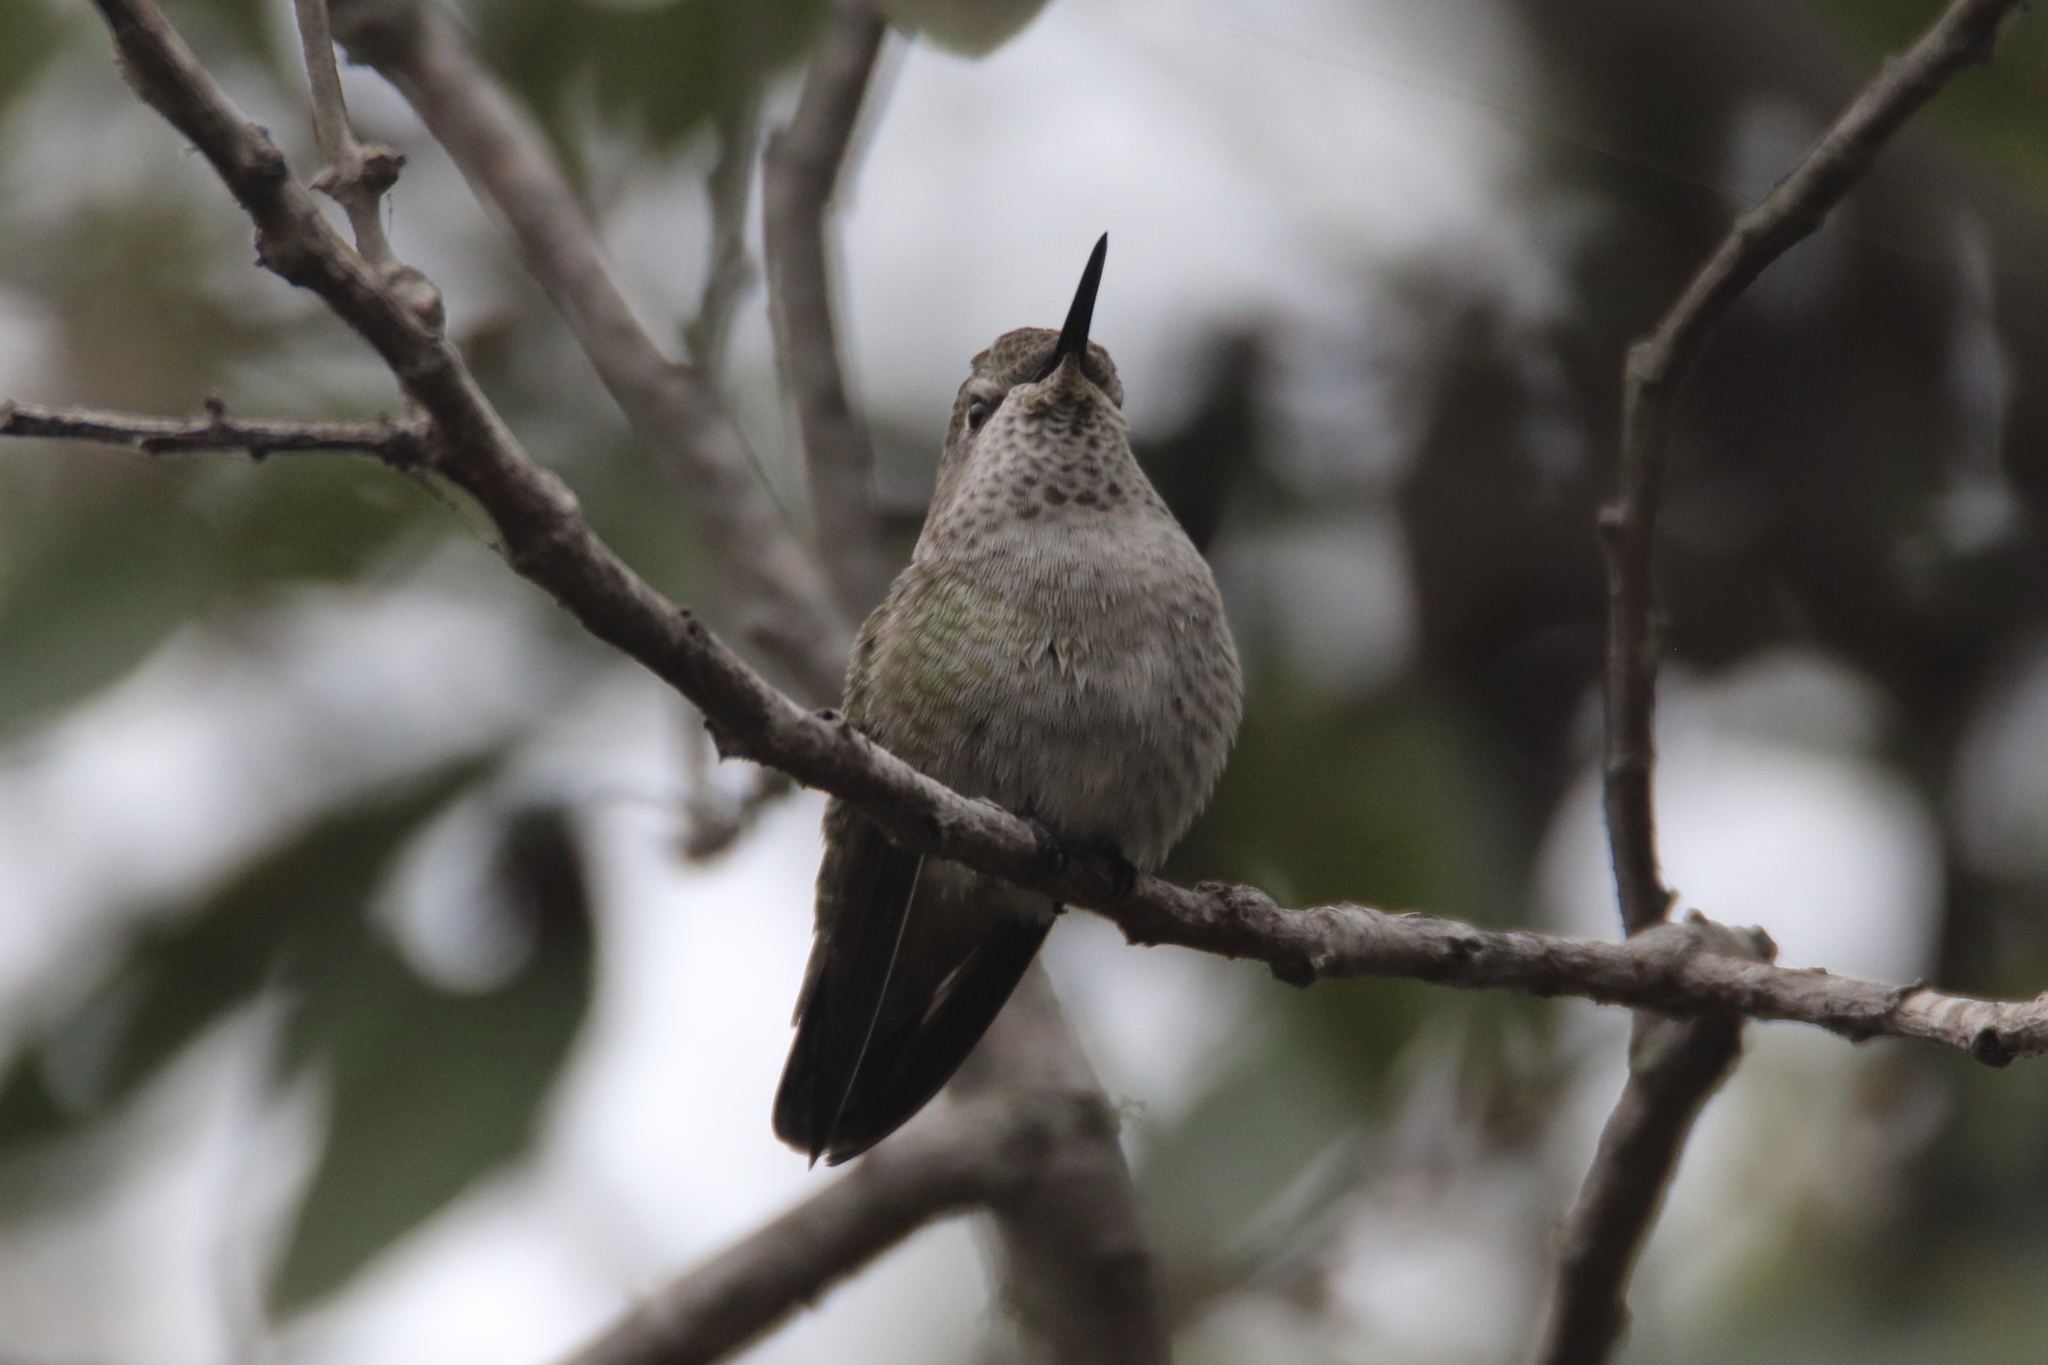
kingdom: Animalia
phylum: Chordata
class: Aves
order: Apodiformes
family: Trochilidae
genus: Calypte
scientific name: Calypte anna
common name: Anna's hummingbird
